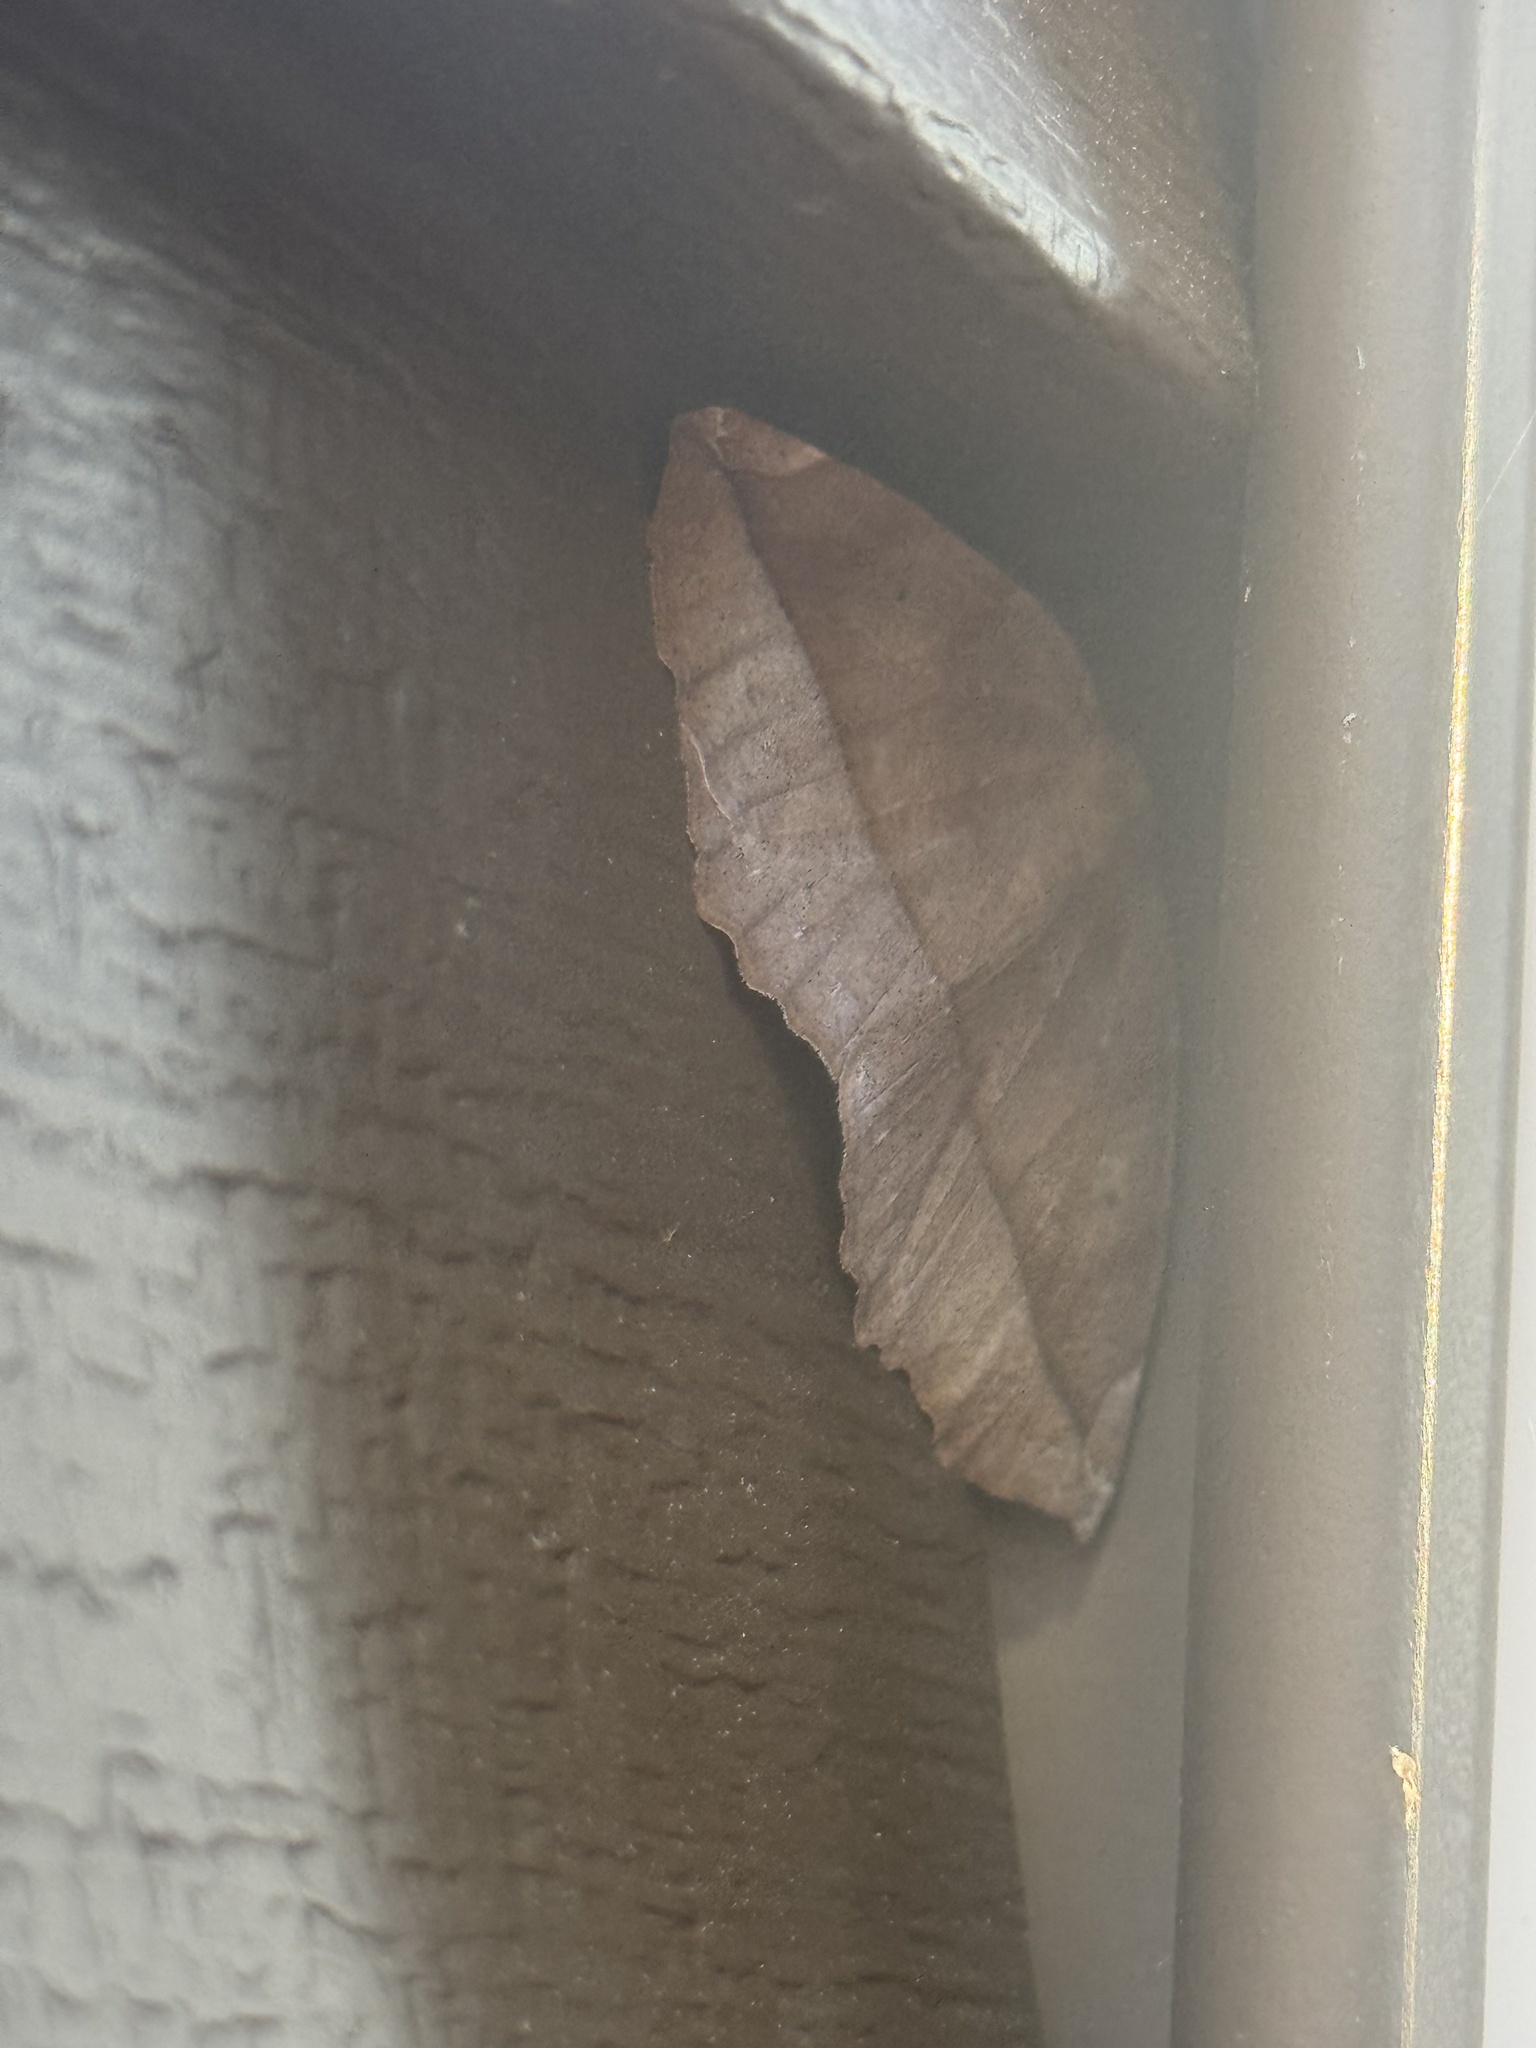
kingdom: Animalia
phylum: Arthropoda
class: Insecta
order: Lepidoptera
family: Geometridae
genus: Eutrapela
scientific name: Eutrapela clemataria
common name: Curved-toothed geometer
